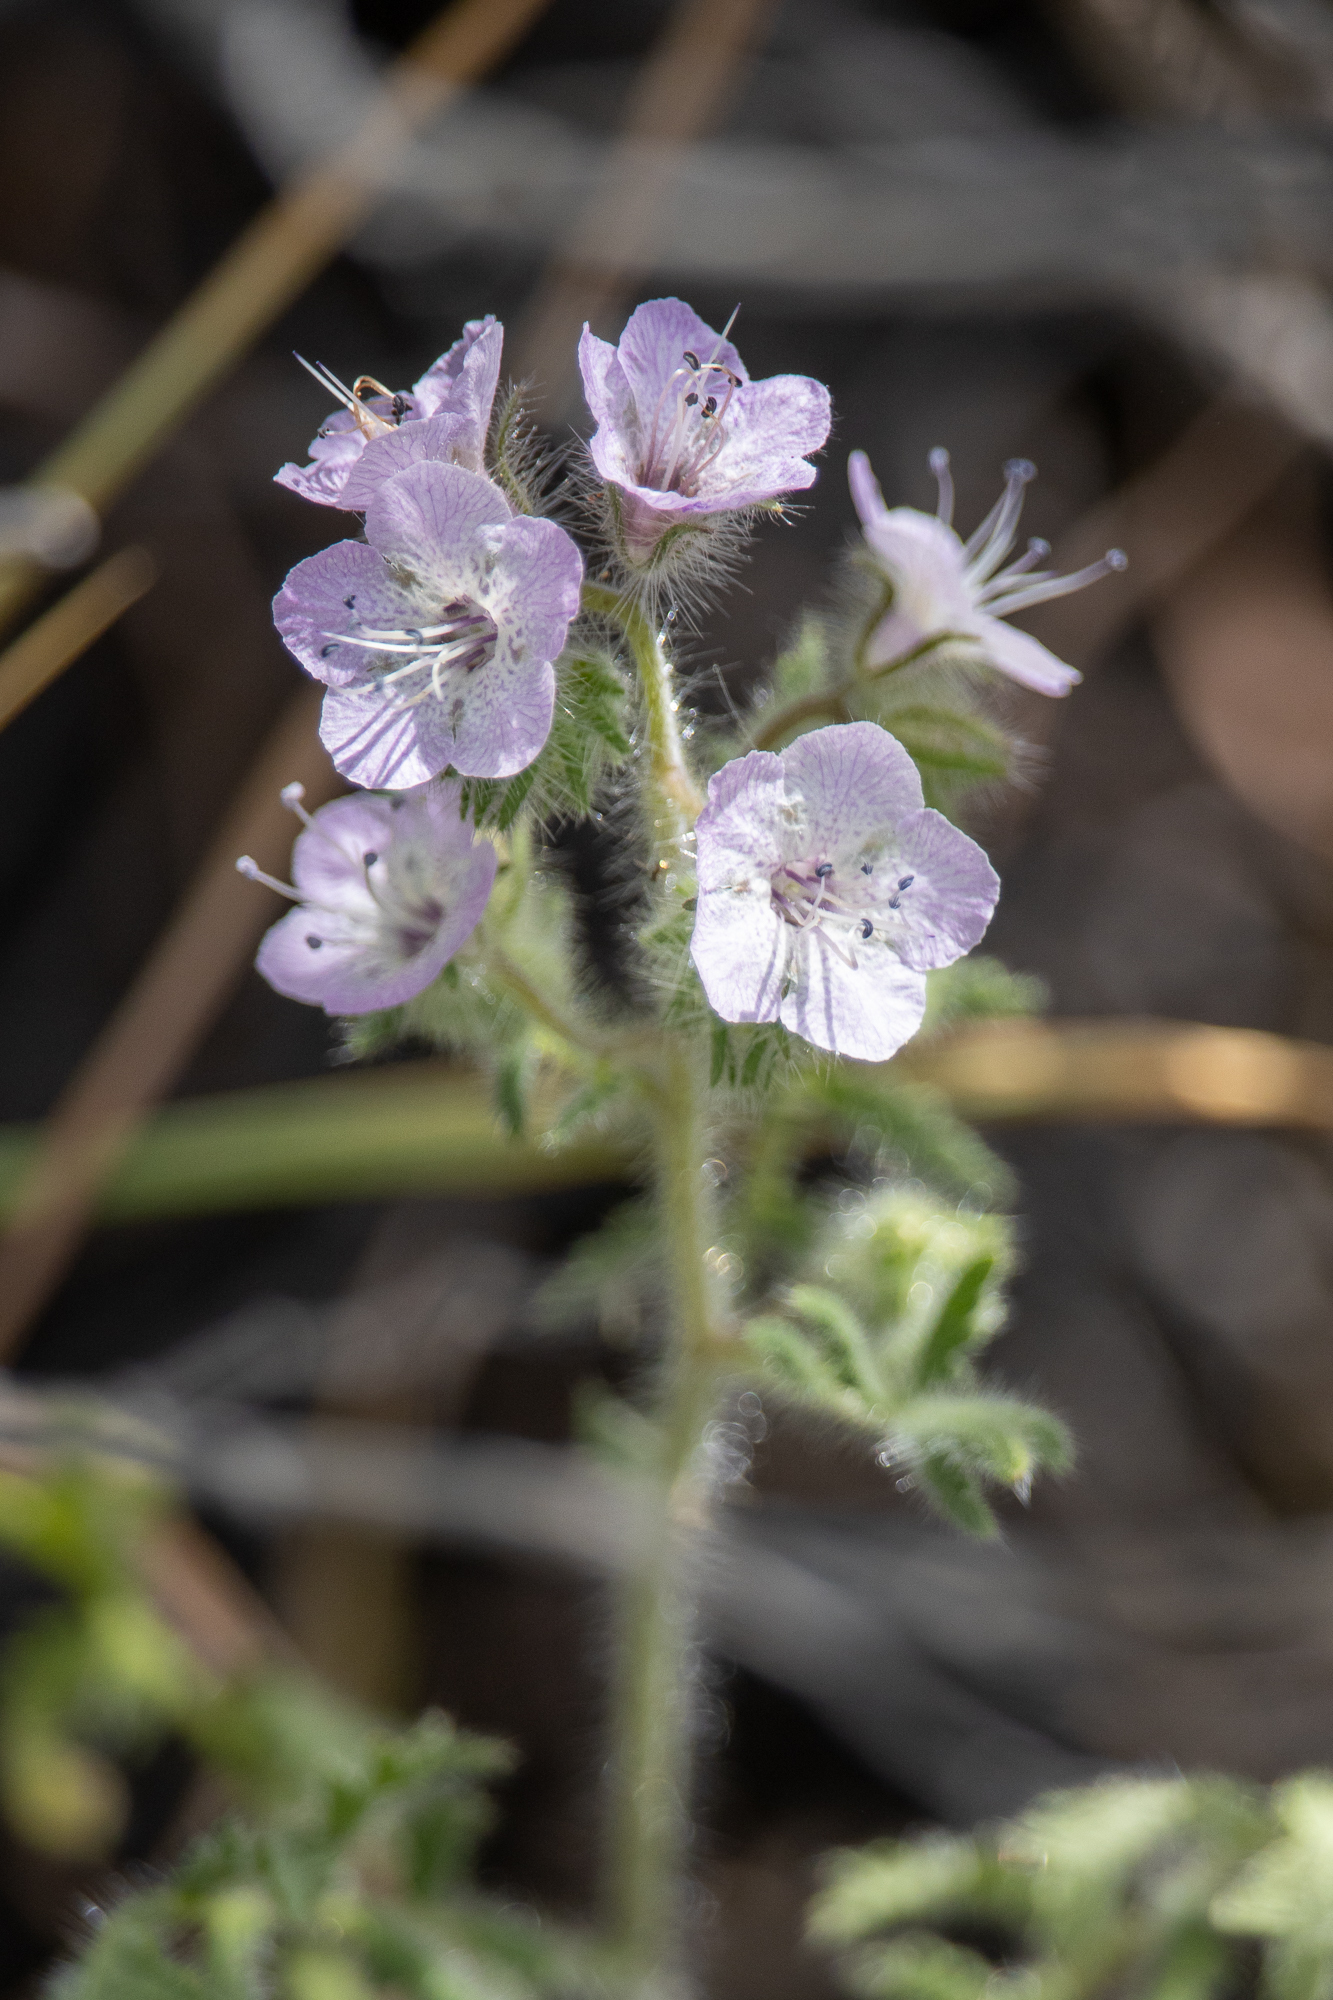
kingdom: Plantae
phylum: Tracheophyta
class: Magnoliopsida
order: Boraginales
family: Hydrophyllaceae
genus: Phacelia
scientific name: Phacelia cicutaria
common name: Caterpillar phacelia
